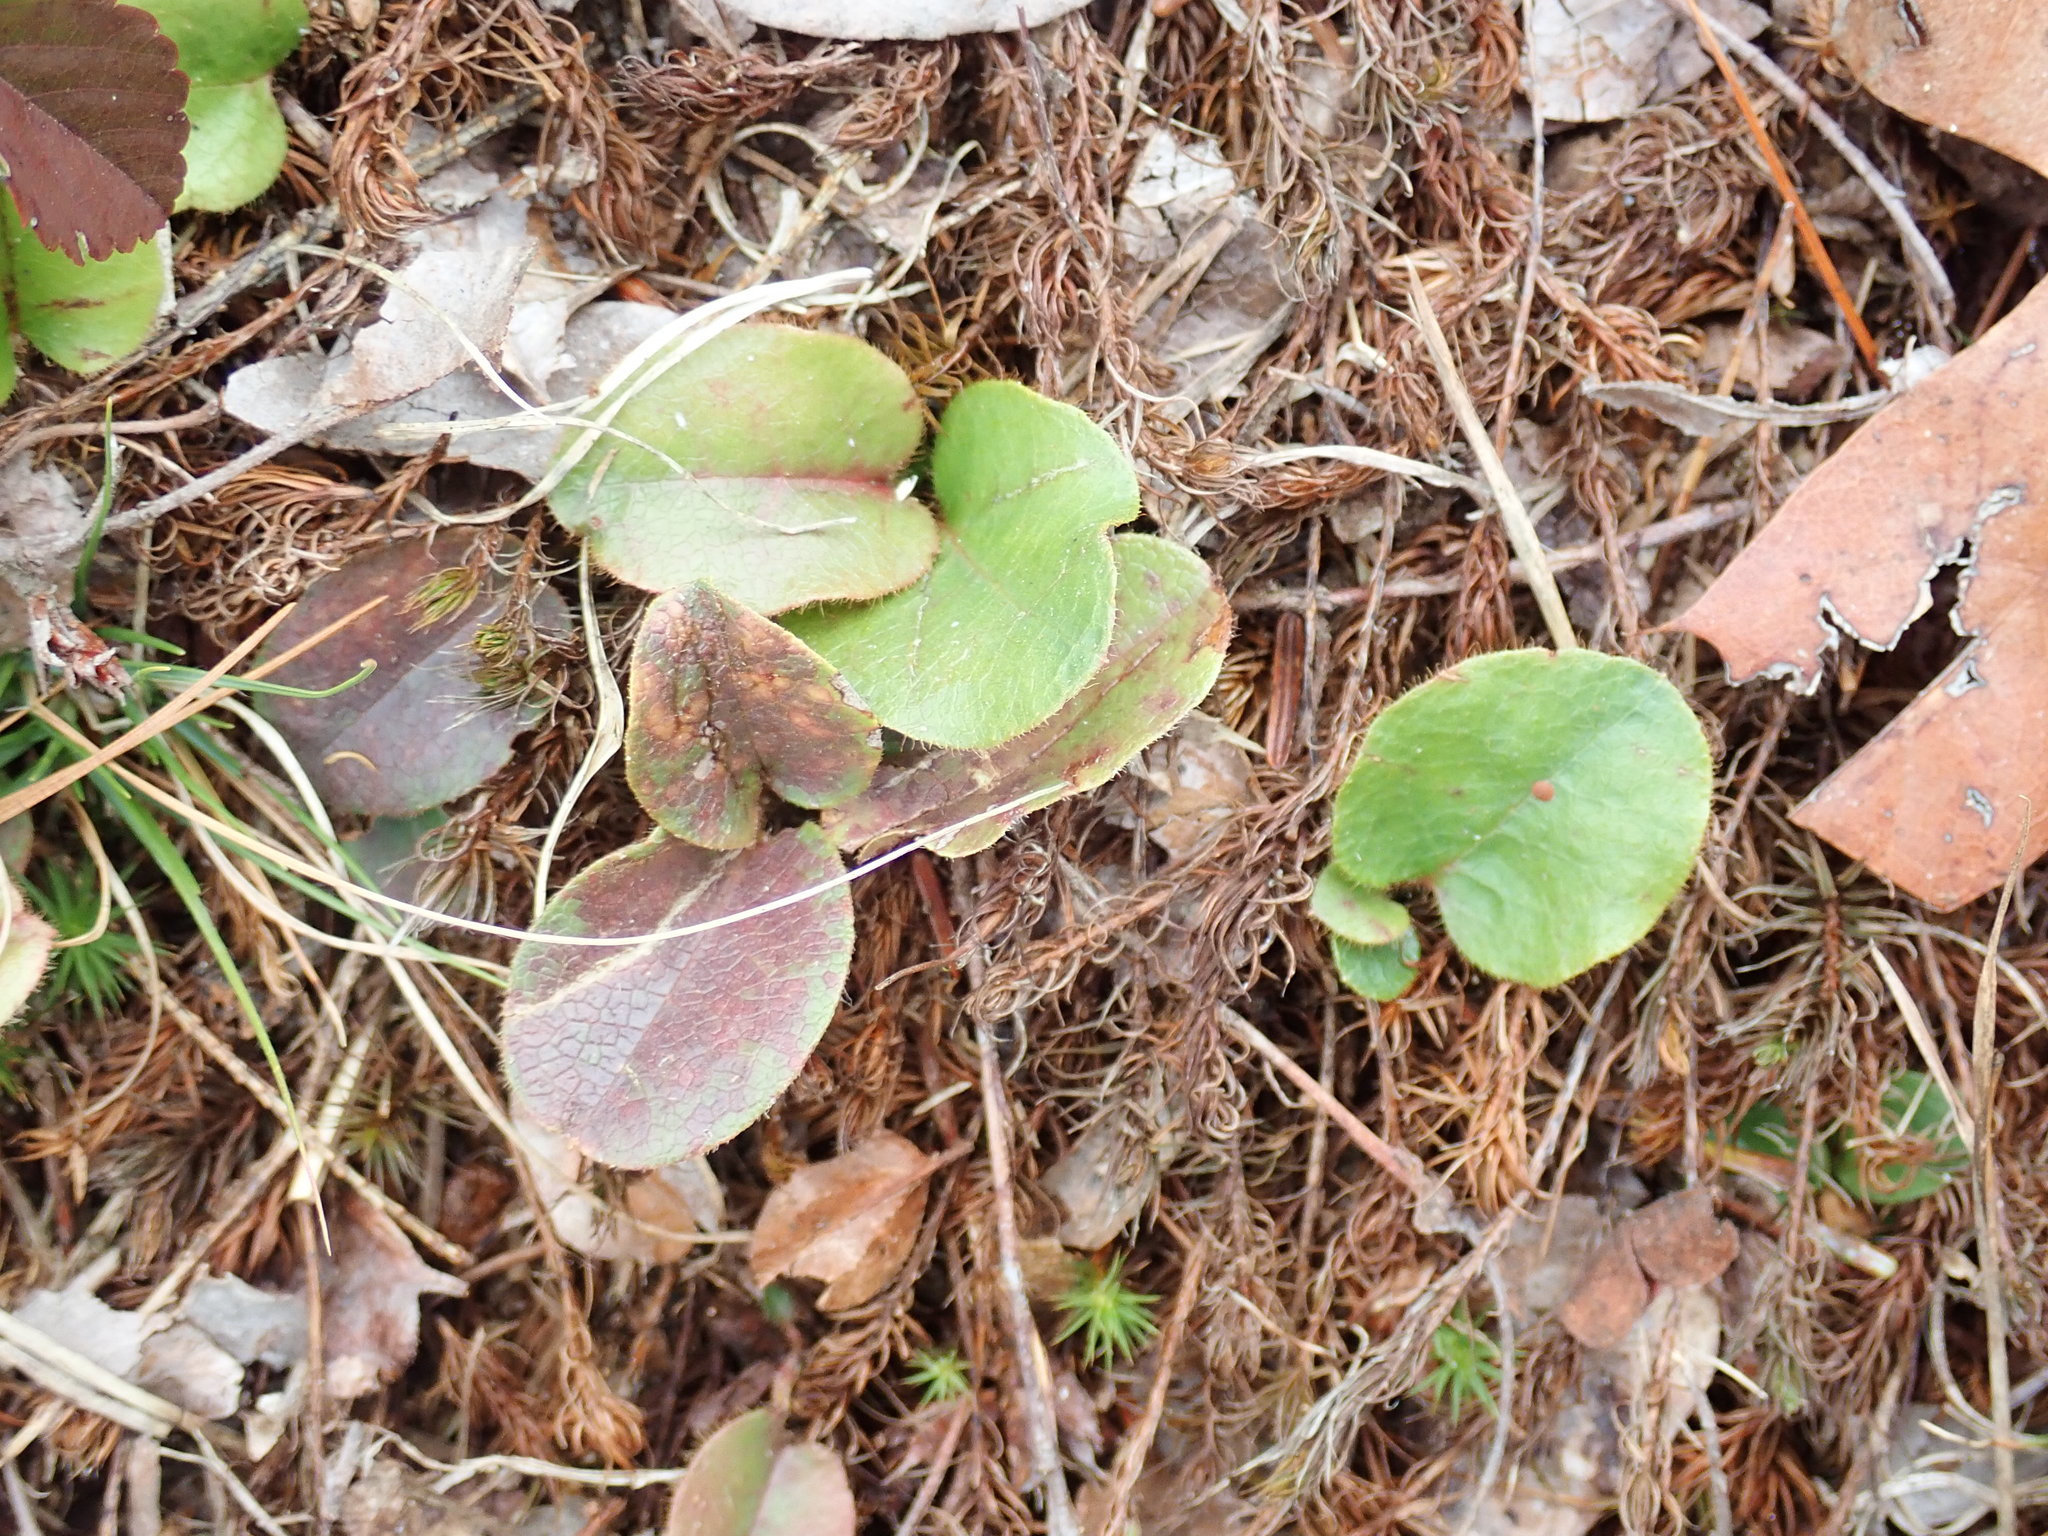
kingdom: Plantae
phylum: Tracheophyta
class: Magnoliopsida
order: Ericales
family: Ericaceae
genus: Epigaea
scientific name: Epigaea repens
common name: Gravelroot
